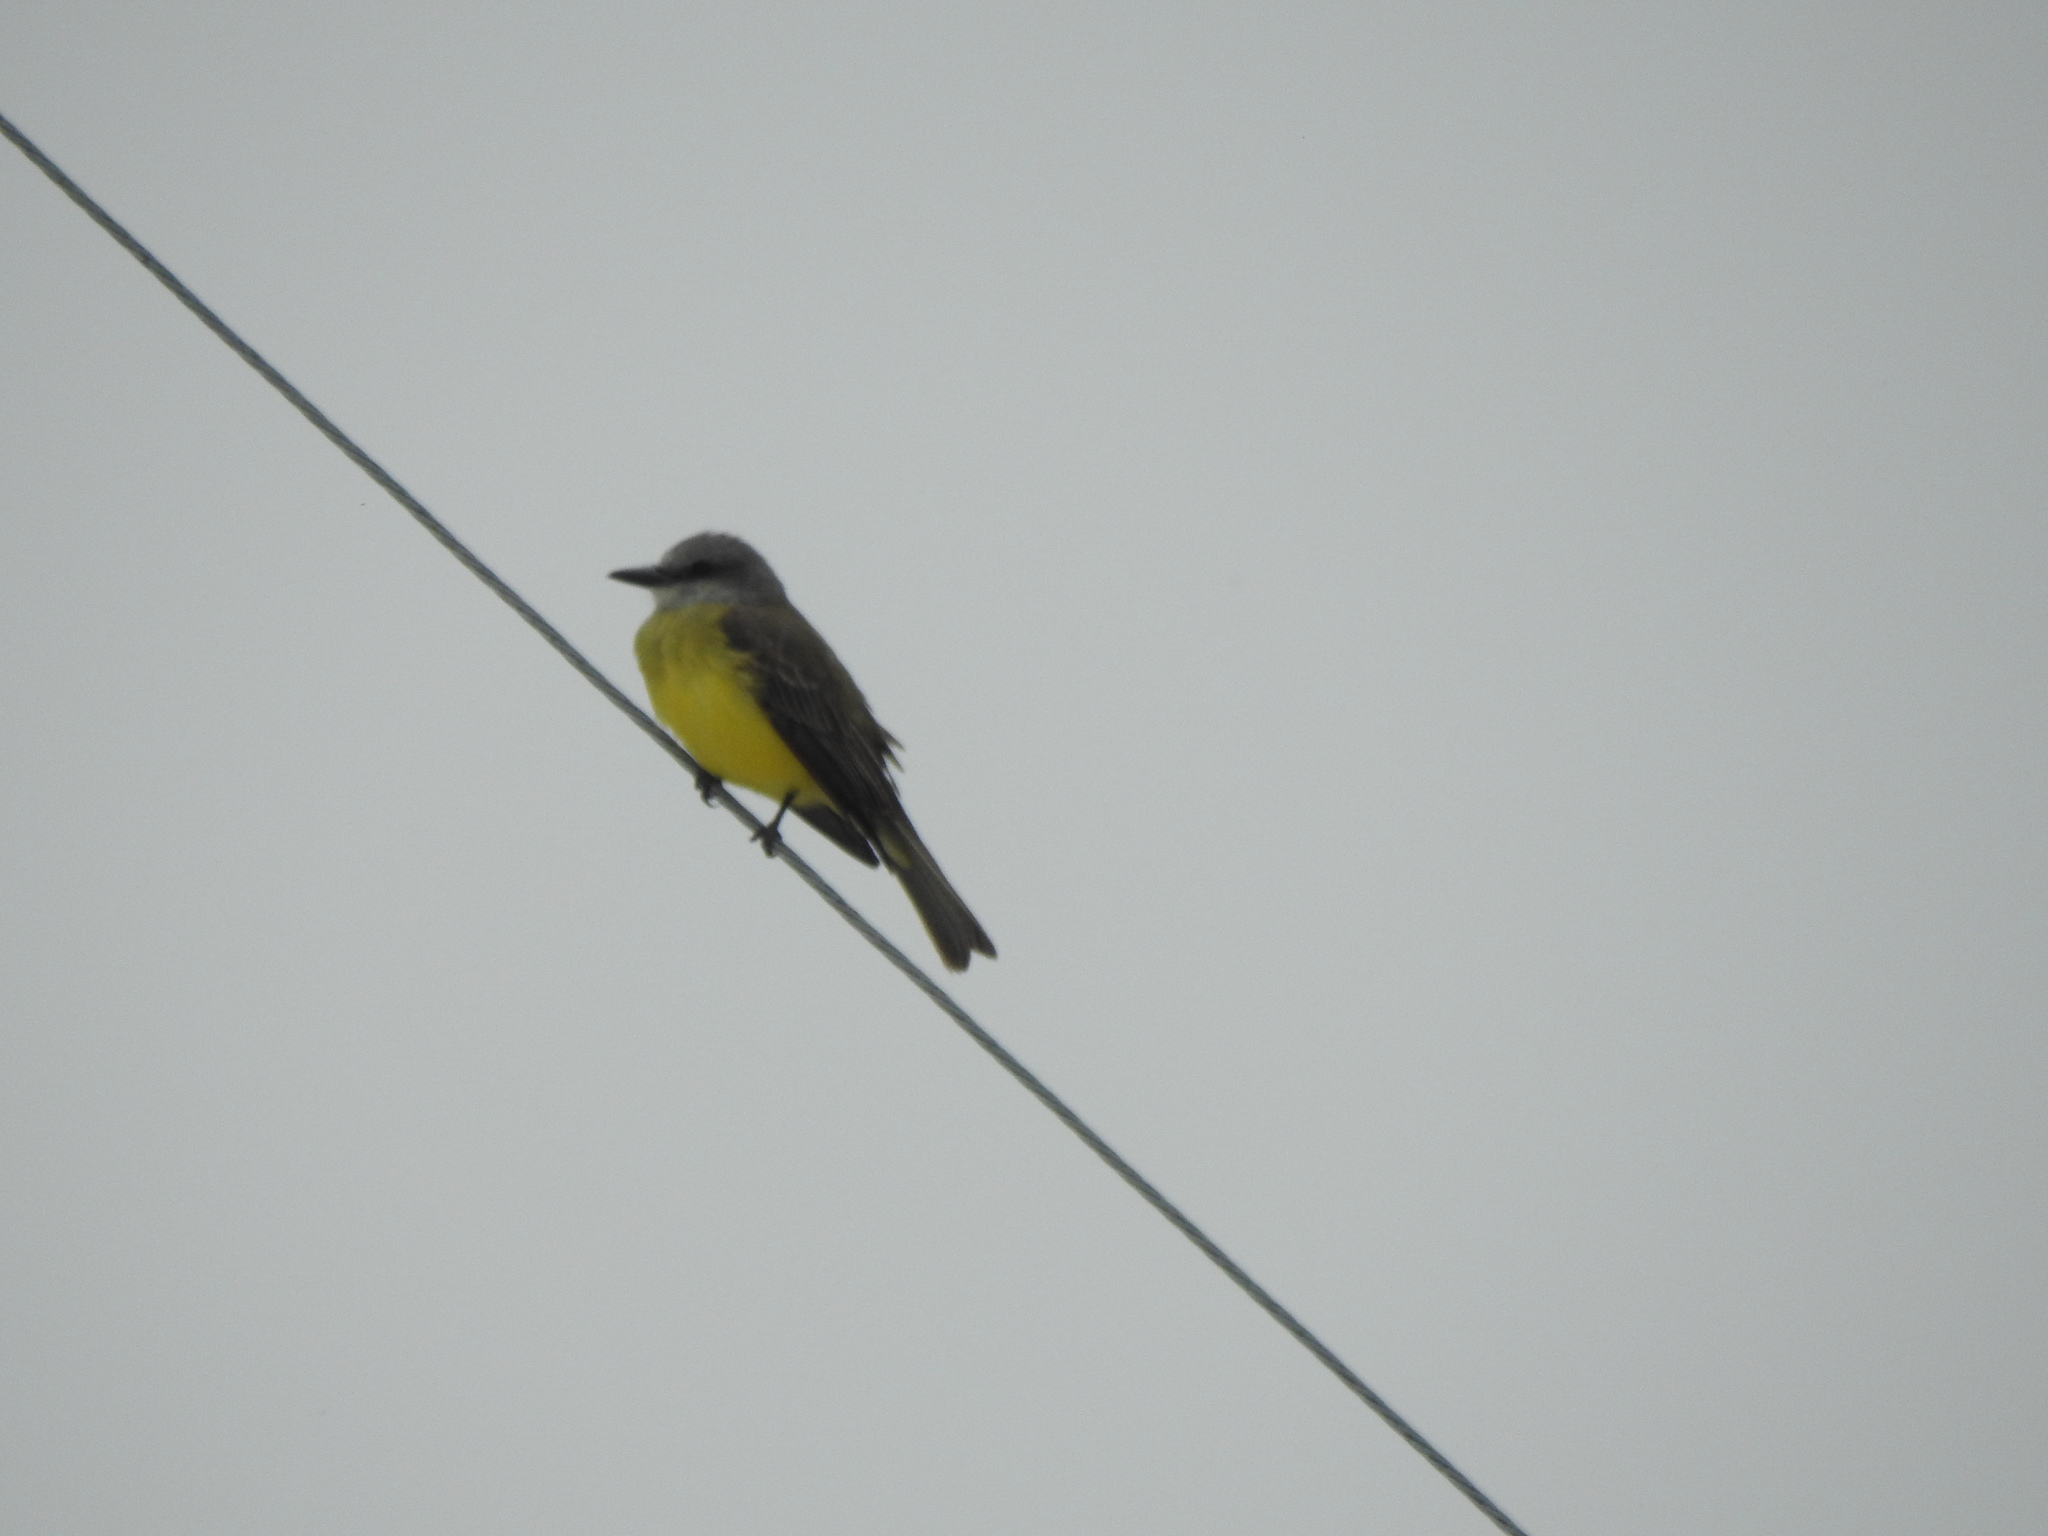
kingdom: Animalia
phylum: Chordata
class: Aves
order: Passeriformes
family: Tyrannidae
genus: Tyrannus
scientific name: Tyrannus melancholicus
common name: Tropical kingbird
